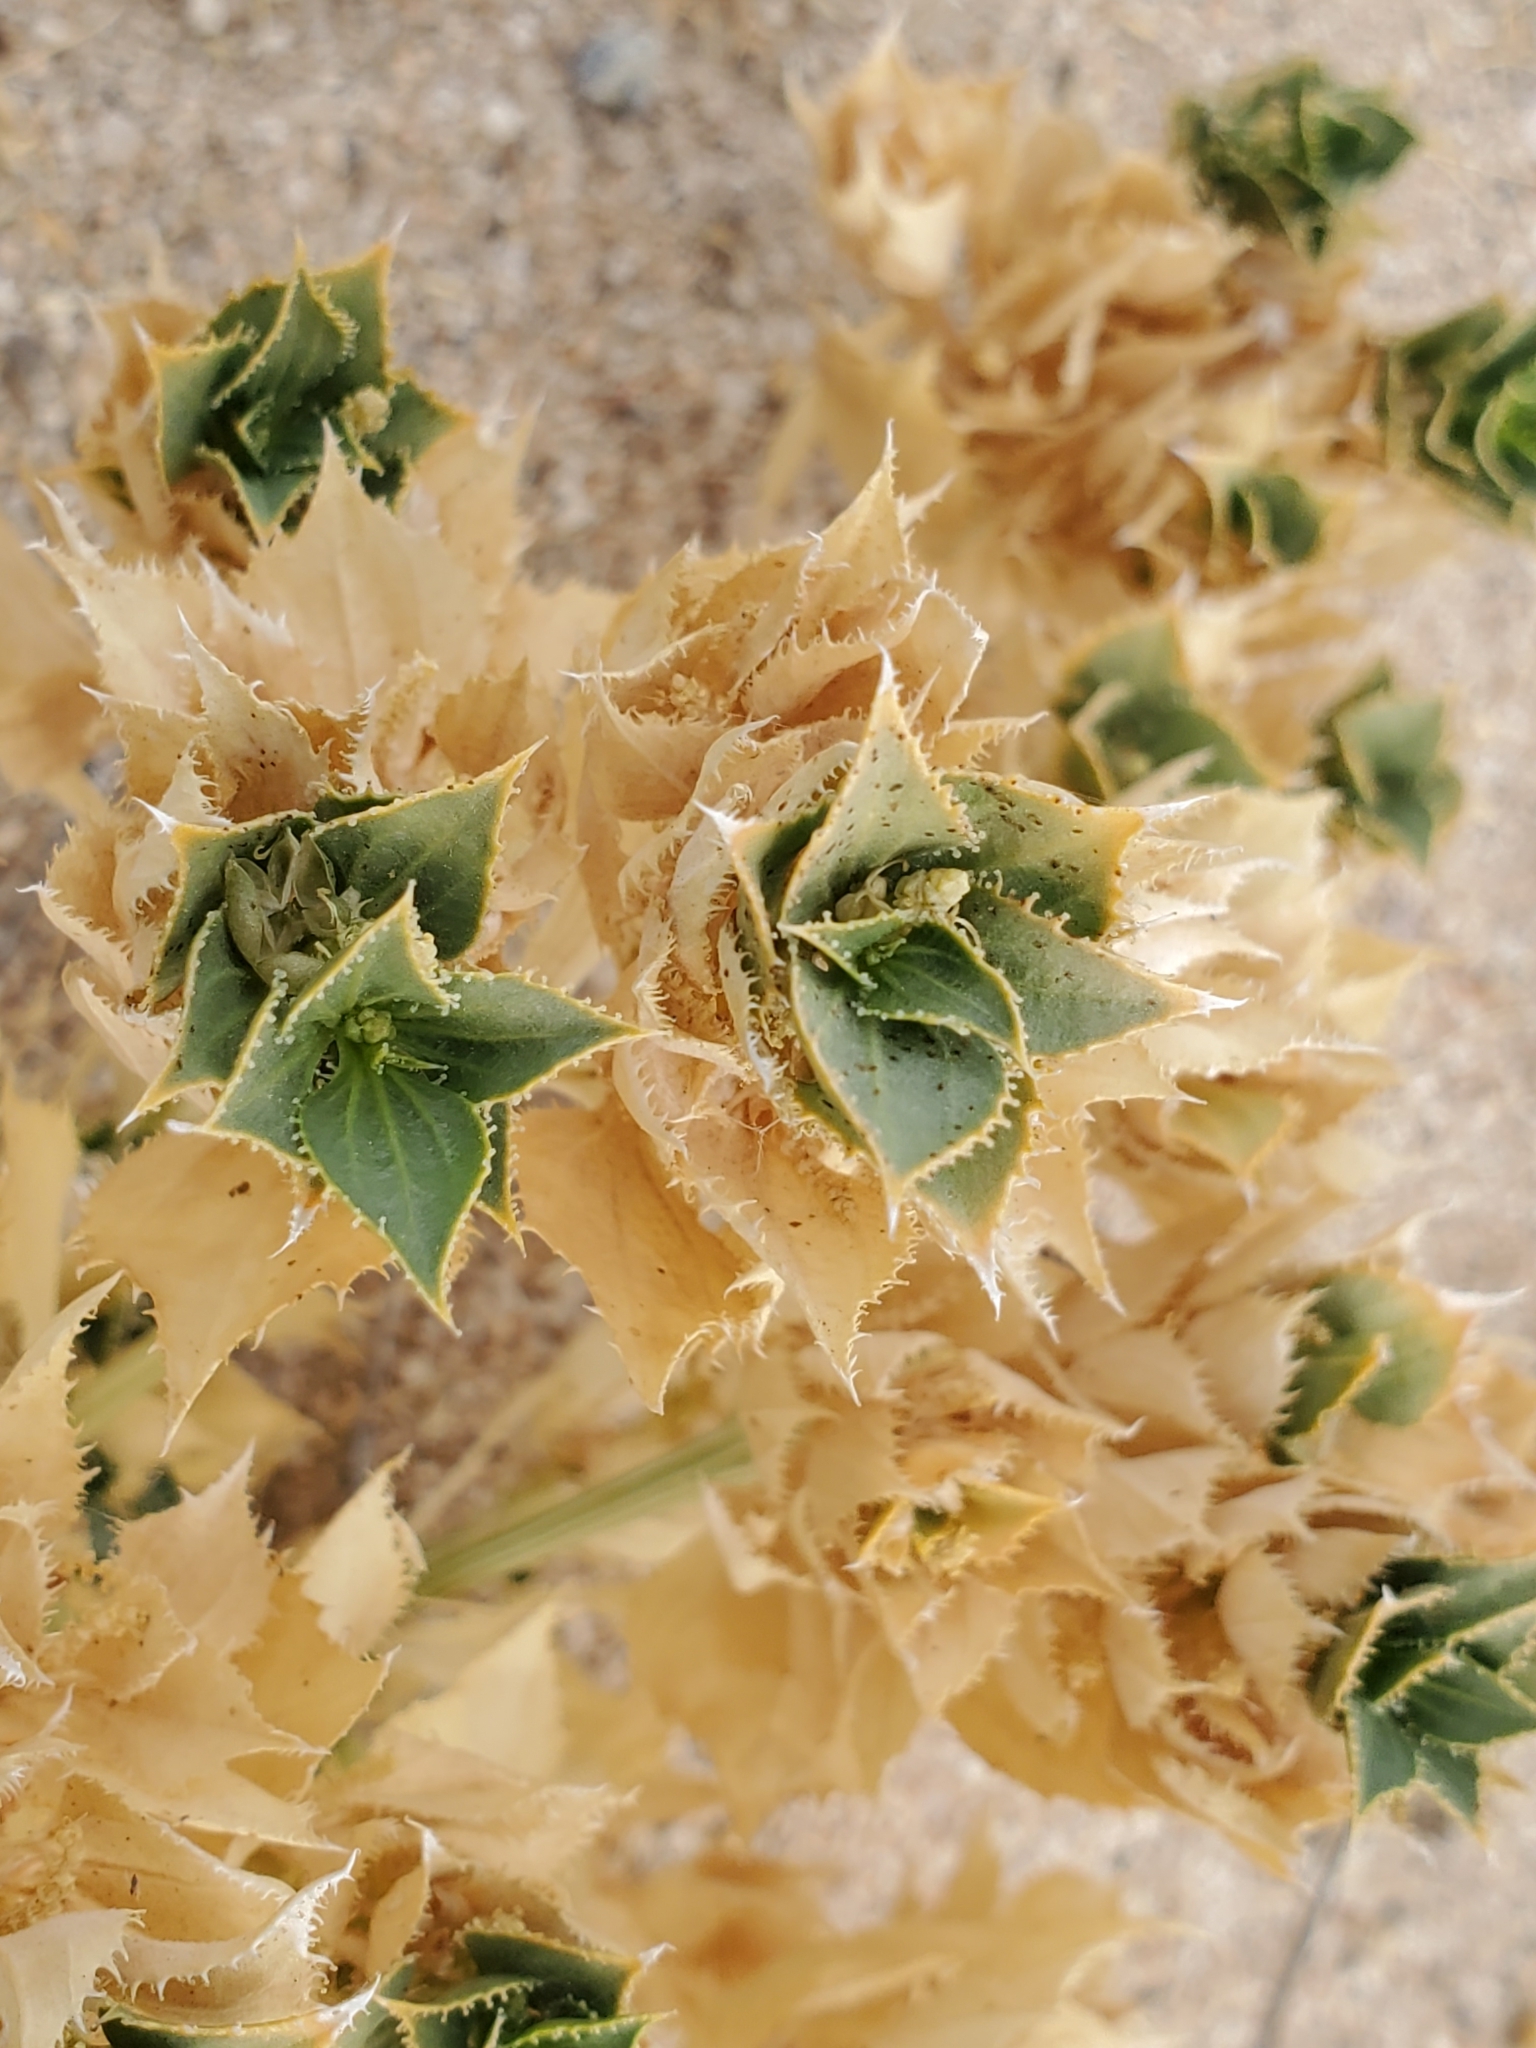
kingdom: Plantae
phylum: Tracheophyta
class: Magnoliopsida
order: Malpighiales
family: Euphorbiaceae
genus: Stillingia
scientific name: Stillingia spinulosa
